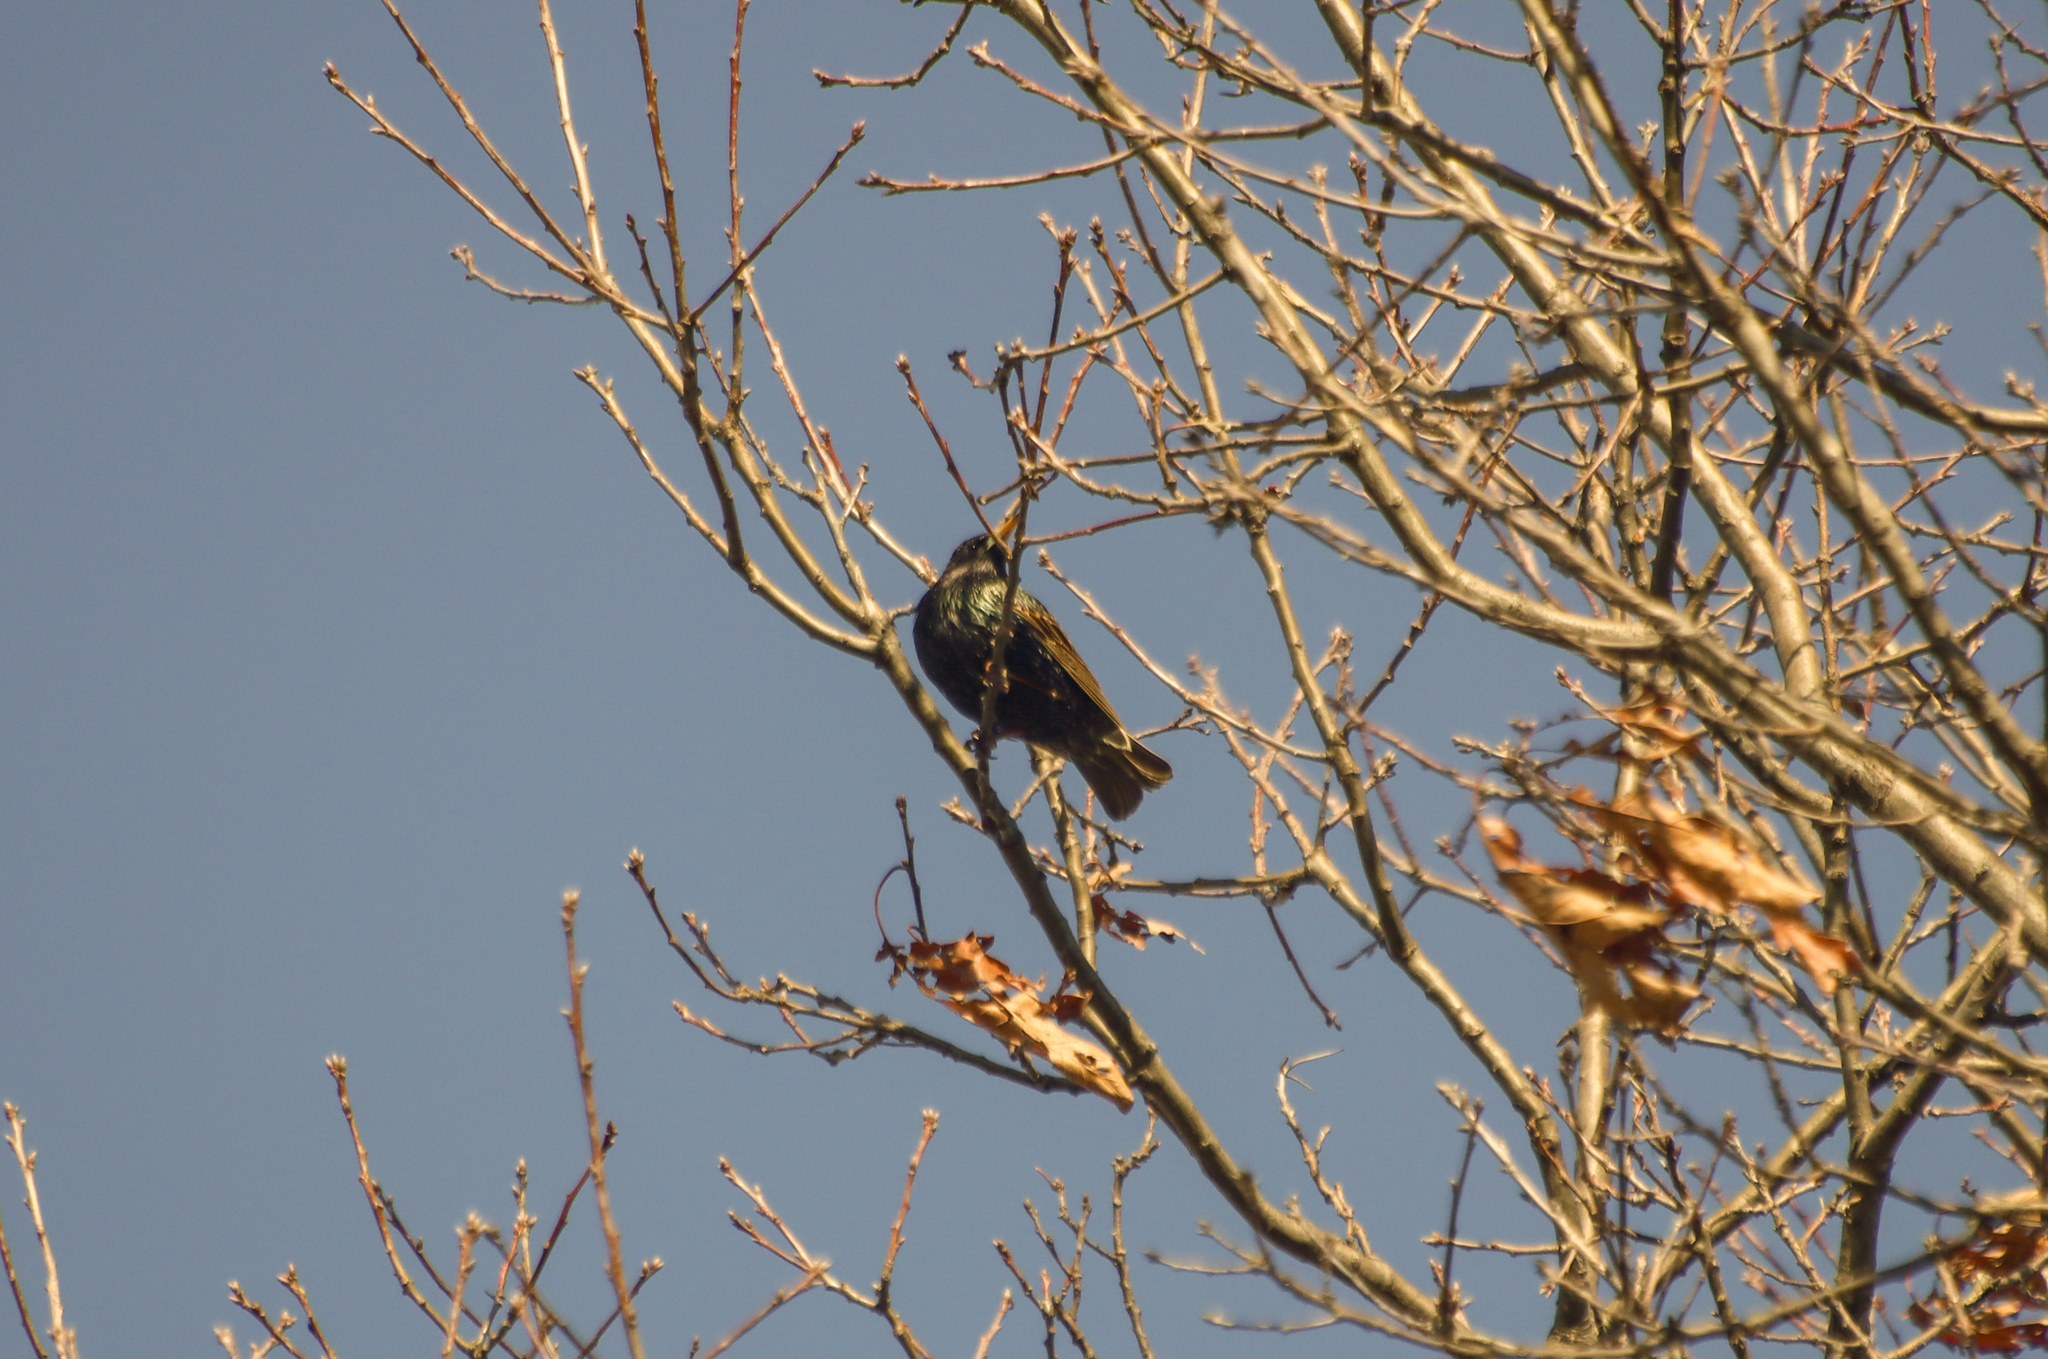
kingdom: Animalia
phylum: Chordata
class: Aves
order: Passeriformes
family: Sturnidae
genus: Sturnus
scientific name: Sturnus vulgaris
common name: Common starling
